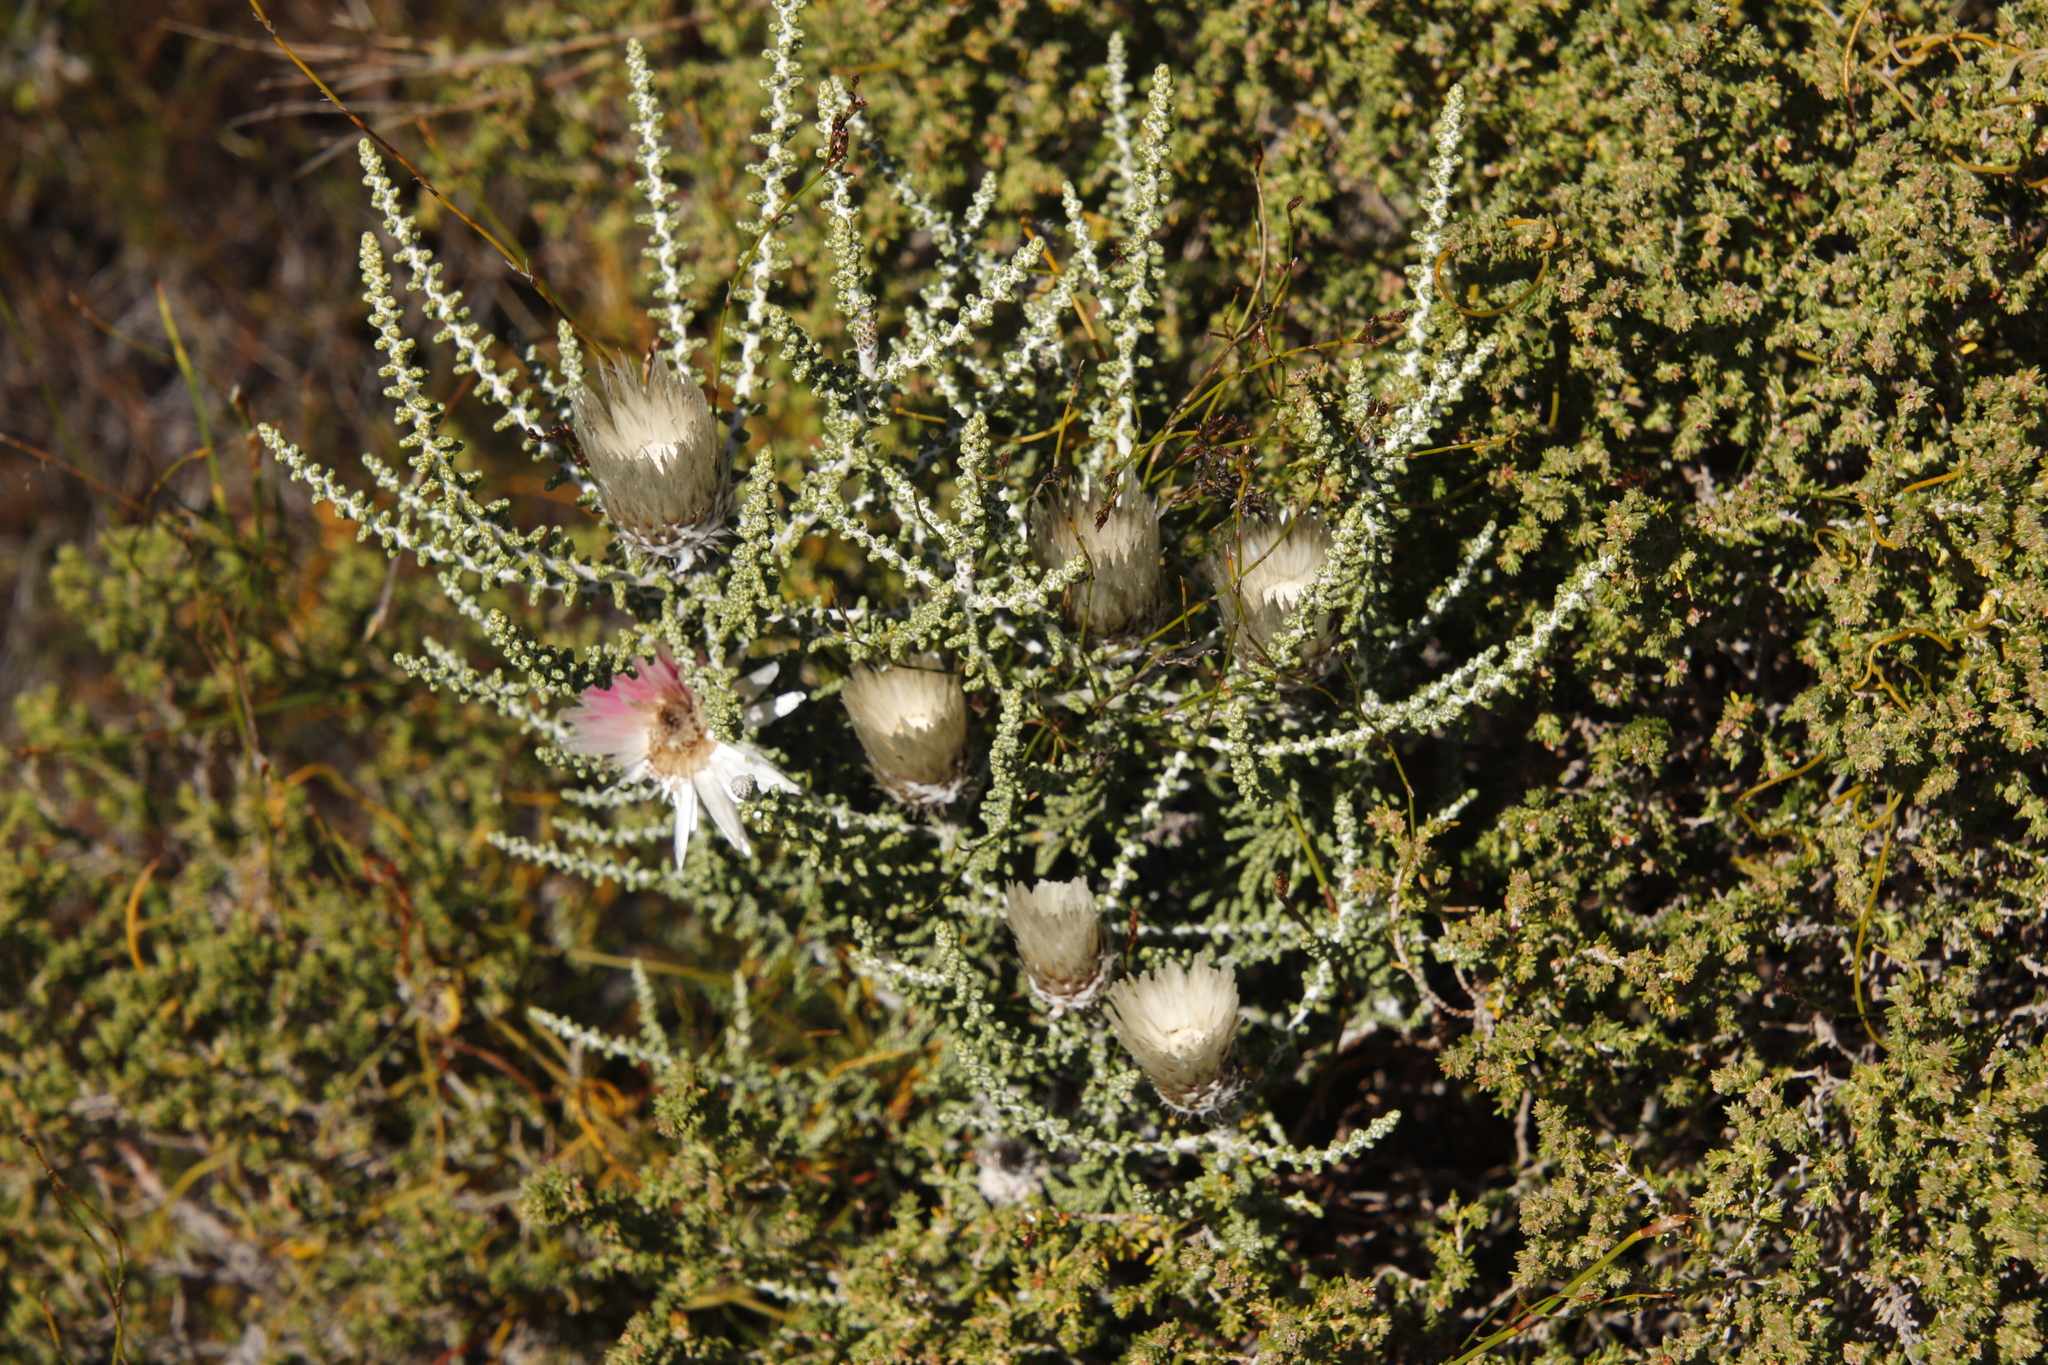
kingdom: Plantae
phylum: Tracheophyta
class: Magnoliopsida
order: Asterales
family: Asteraceae
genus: Phaenocoma
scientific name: Phaenocoma prolifera
